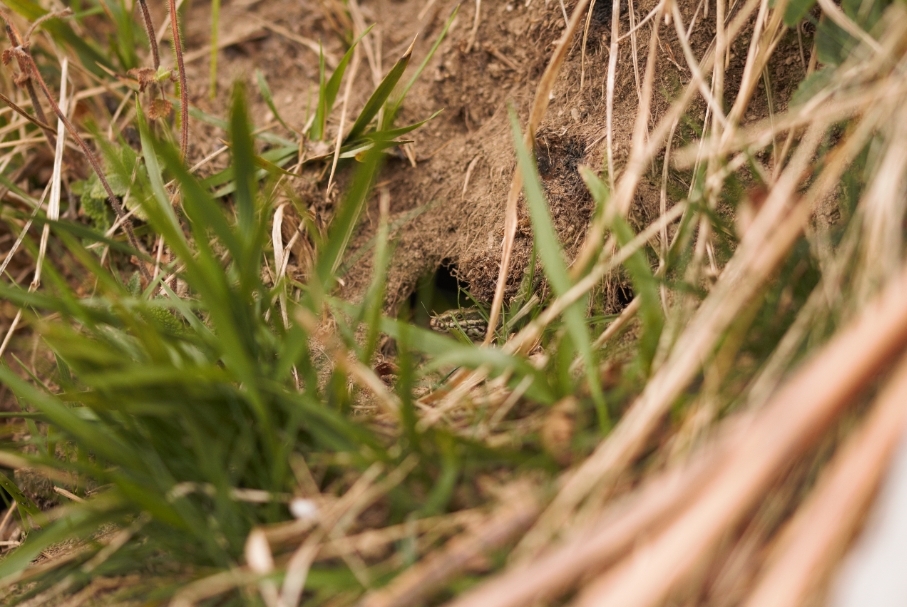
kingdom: Animalia
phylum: Chordata
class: Squamata
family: Lacertidae
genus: Podarcis
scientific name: Podarcis muralis
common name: Common wall lizard
